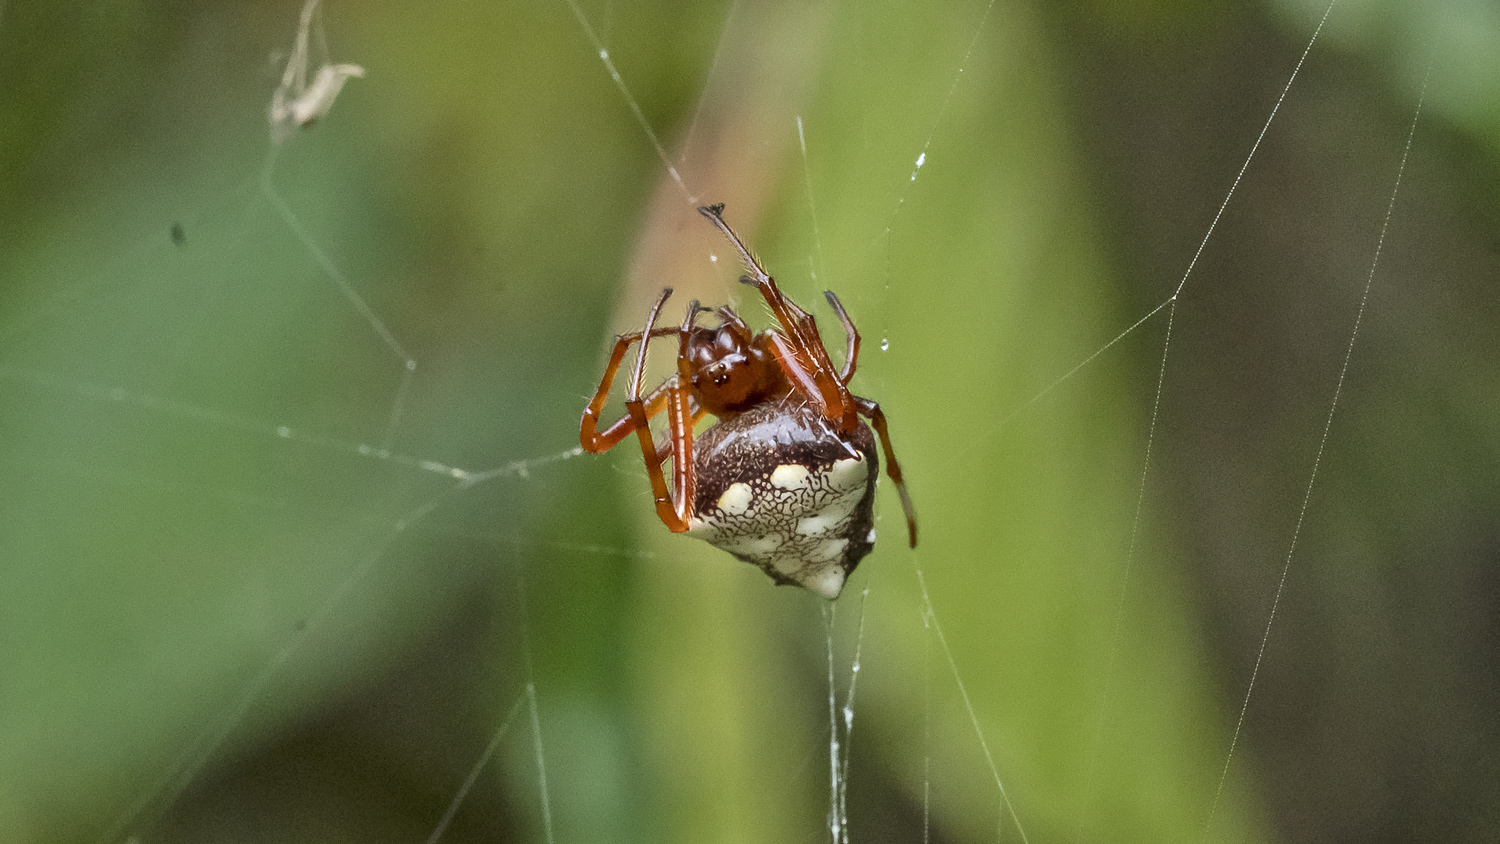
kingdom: Animalia
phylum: Arthropoda
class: Arachnida
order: Araneae
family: Araneidae
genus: Verrucosa
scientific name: Verrucosa arenata
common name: Orb weavers
